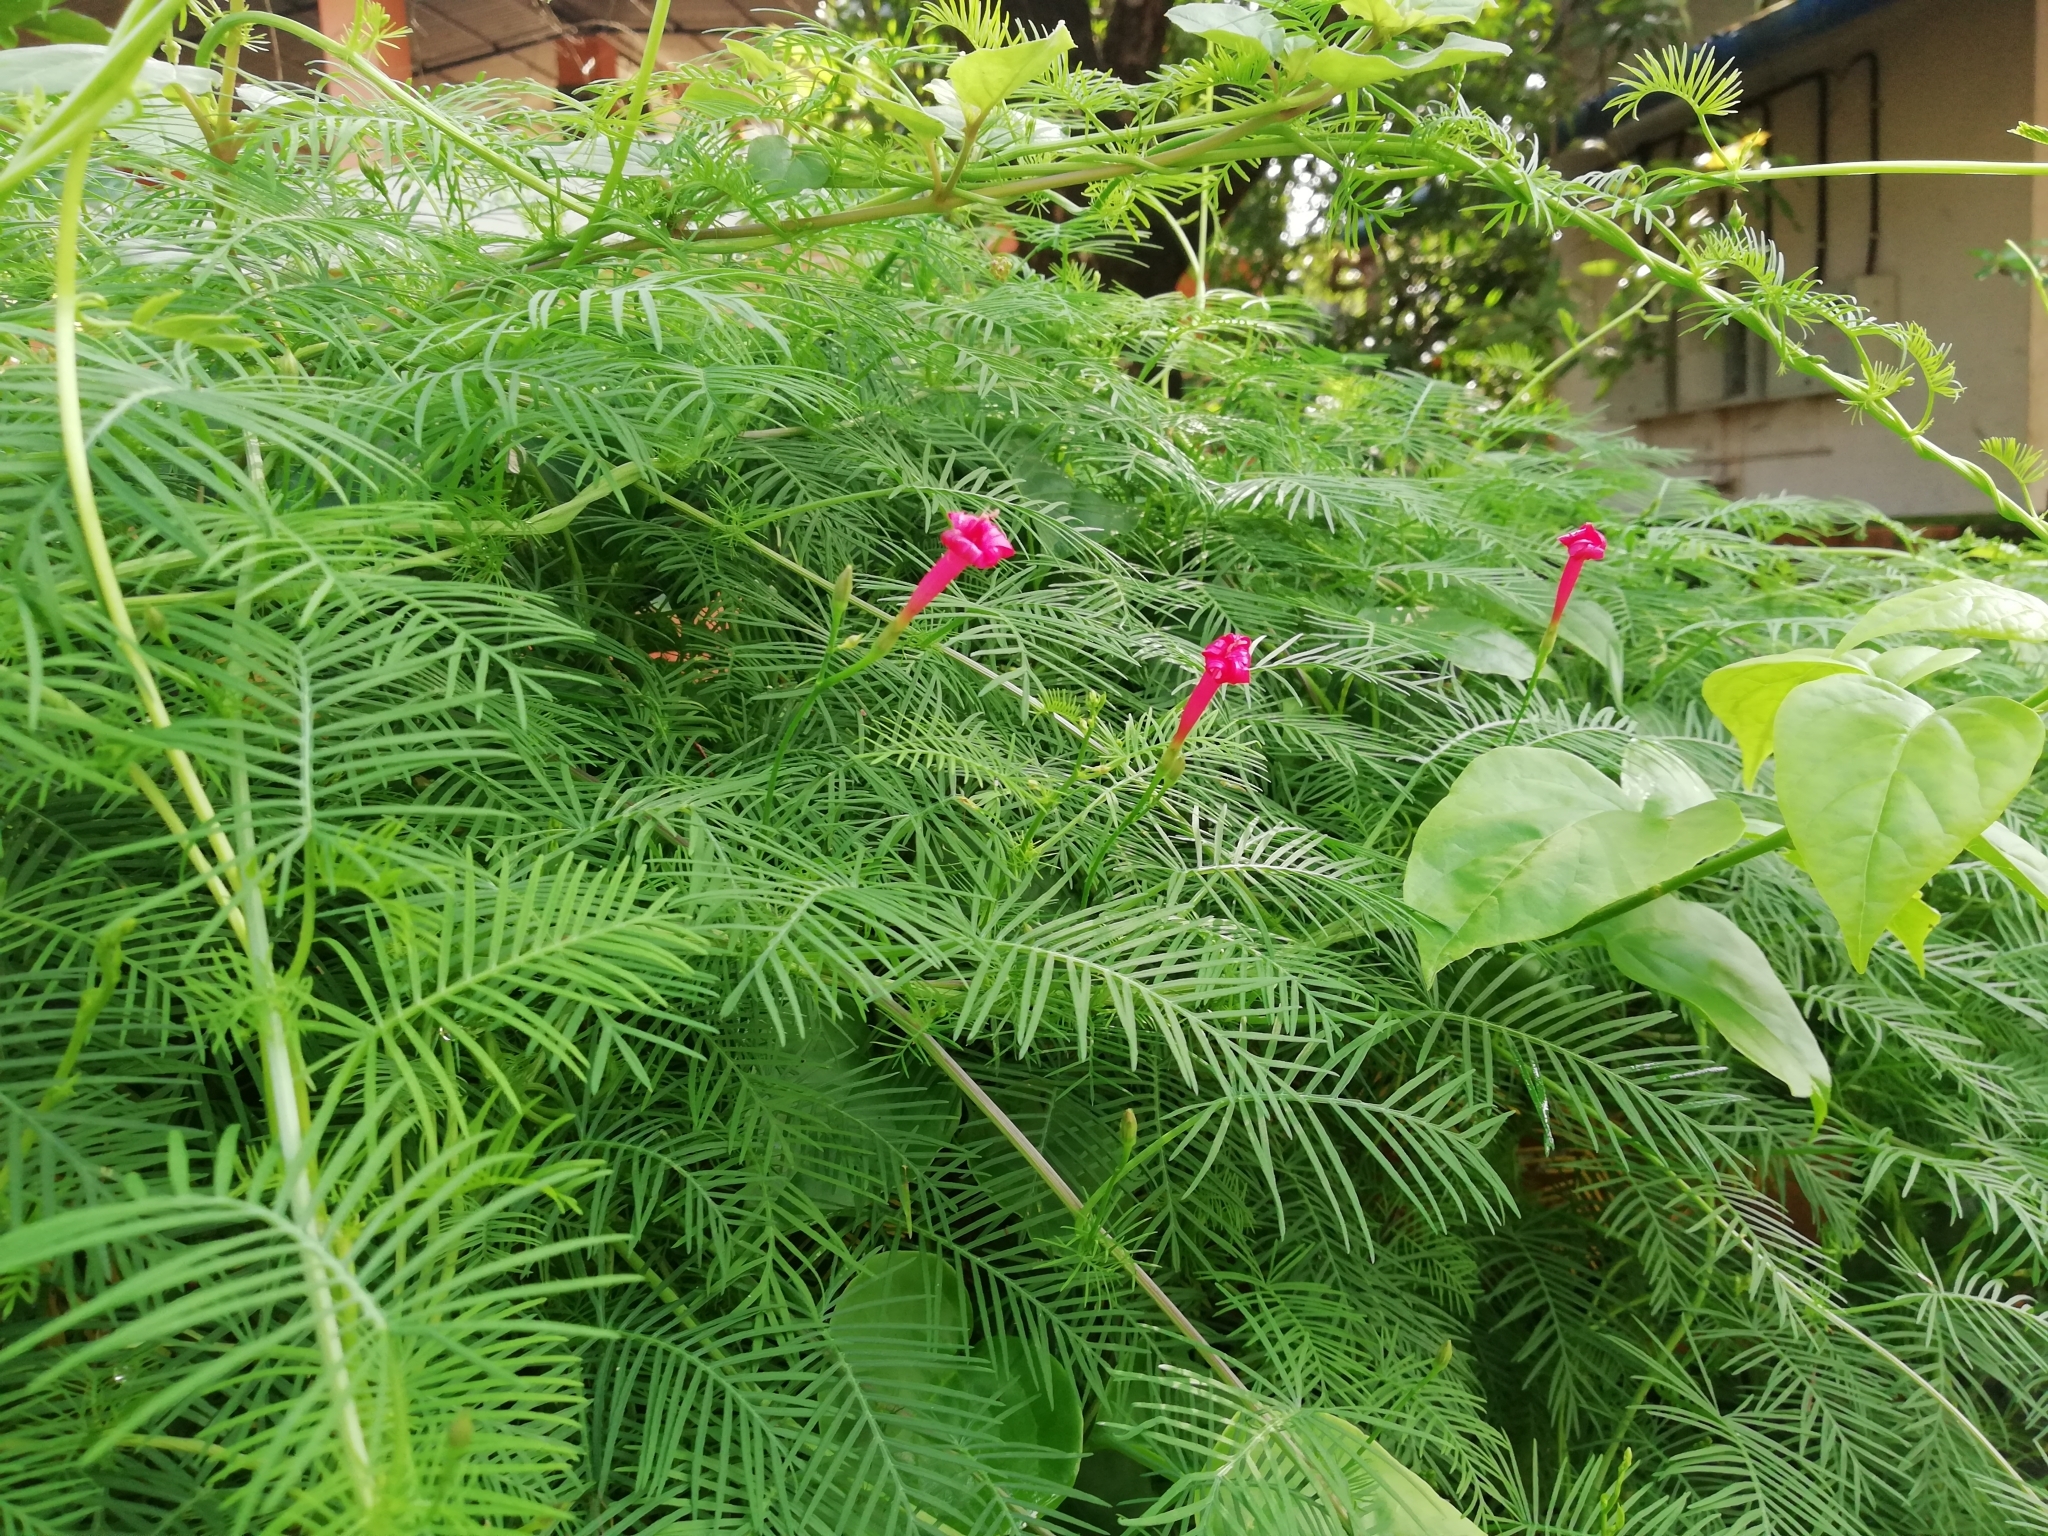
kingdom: Plantae
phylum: Tracheophyta
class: Magnoliopsida
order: Solanales
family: Convolvulaceae
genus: Ipomoea
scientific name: Ipomoea quamoclit
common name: Cypress vine
